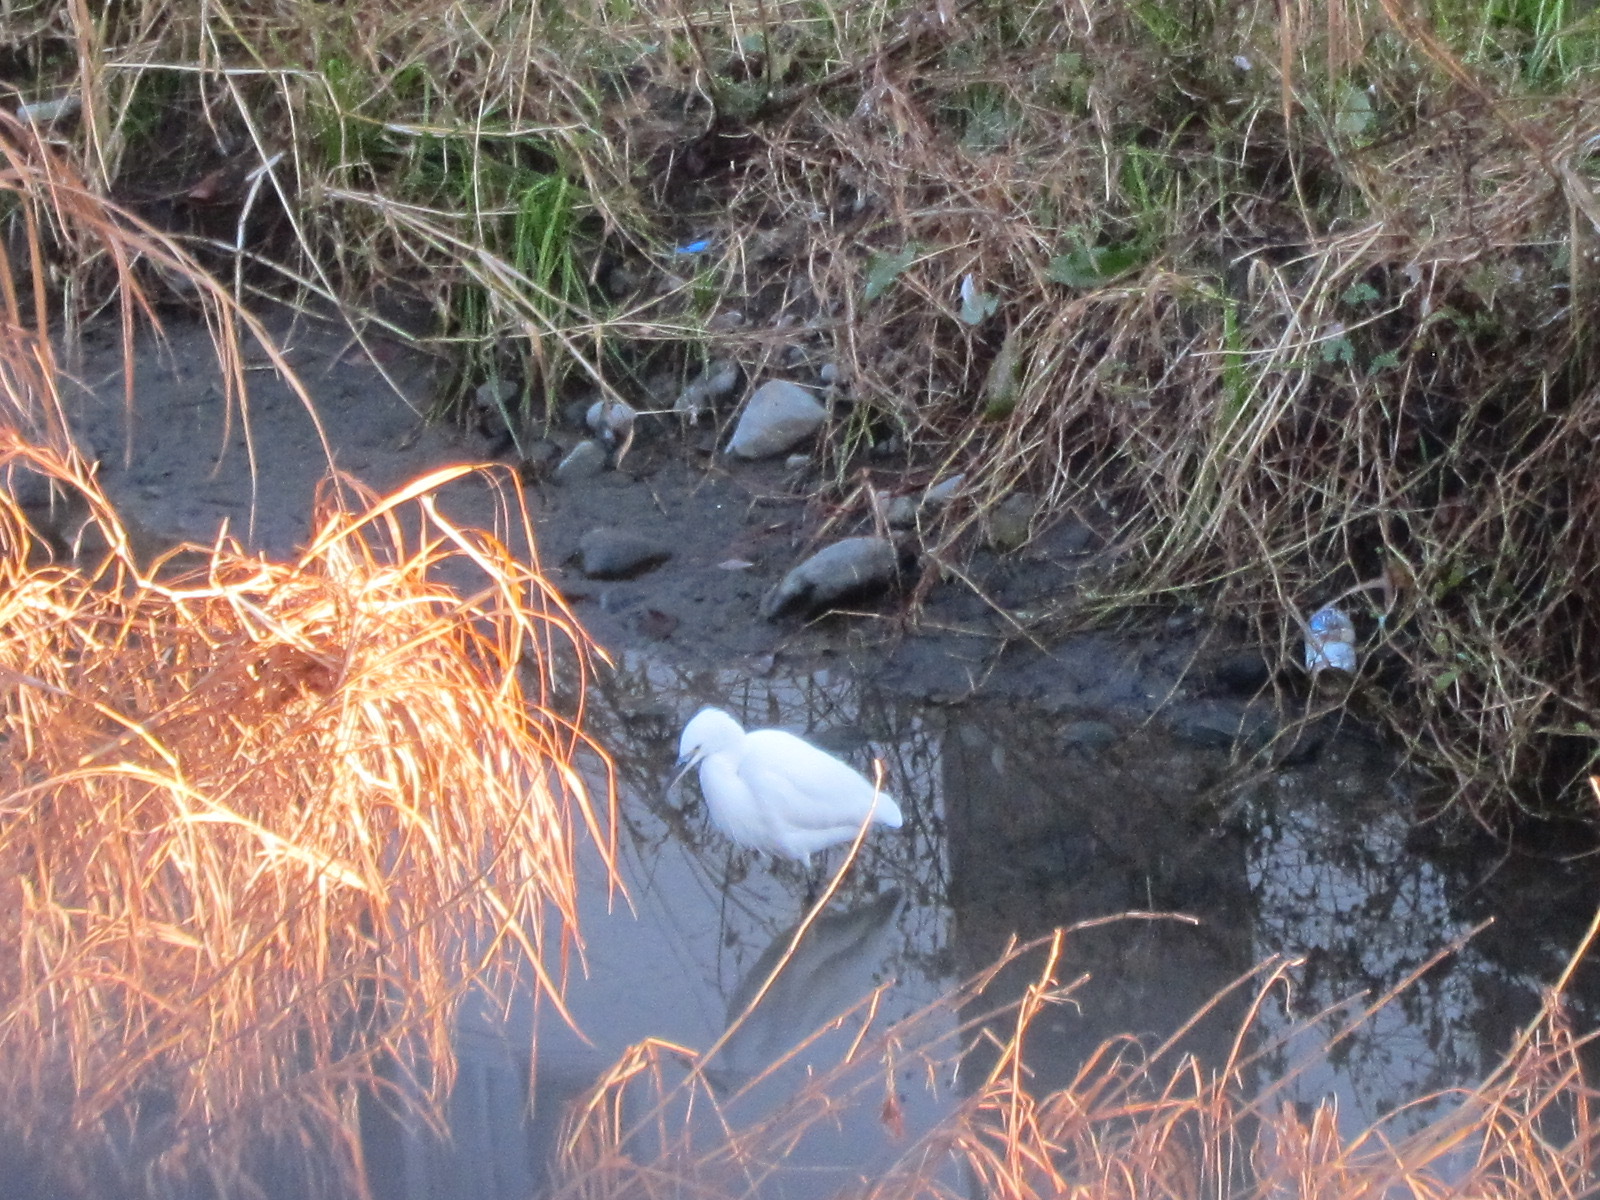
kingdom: Animalia
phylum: Chordata
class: Aves
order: Pelecaniformes
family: Ardeidae
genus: Egretta
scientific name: Egretta garzetta
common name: Little egret
